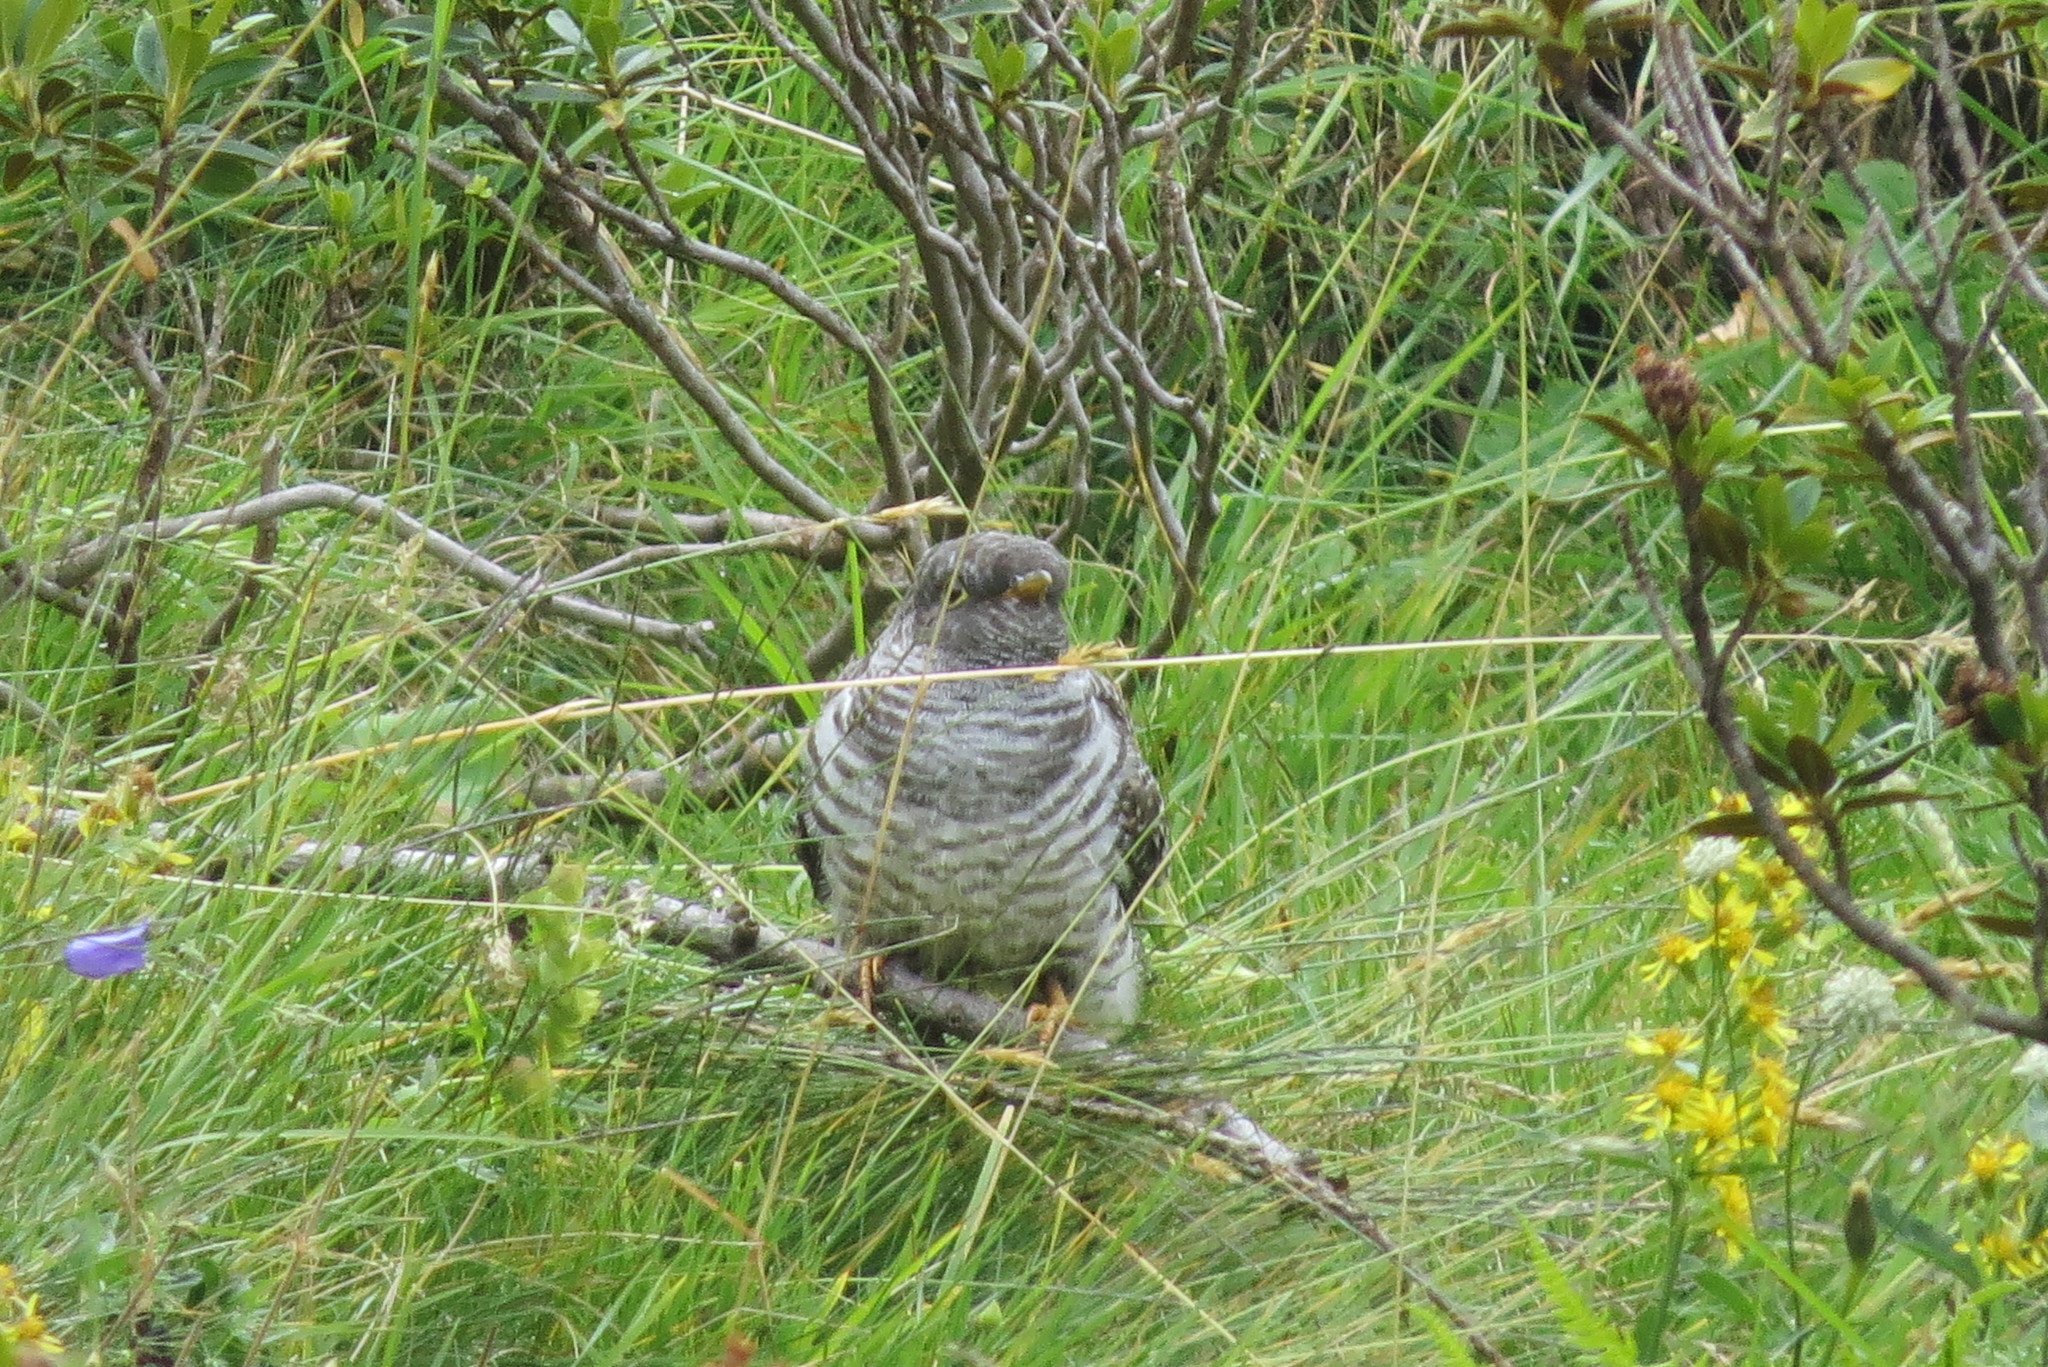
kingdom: Animalia
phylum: Chordata
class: Aves
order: Cuculiformes
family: Cuculidae
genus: Cuculus
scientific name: Cuculus canorus
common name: Common cuckoo
